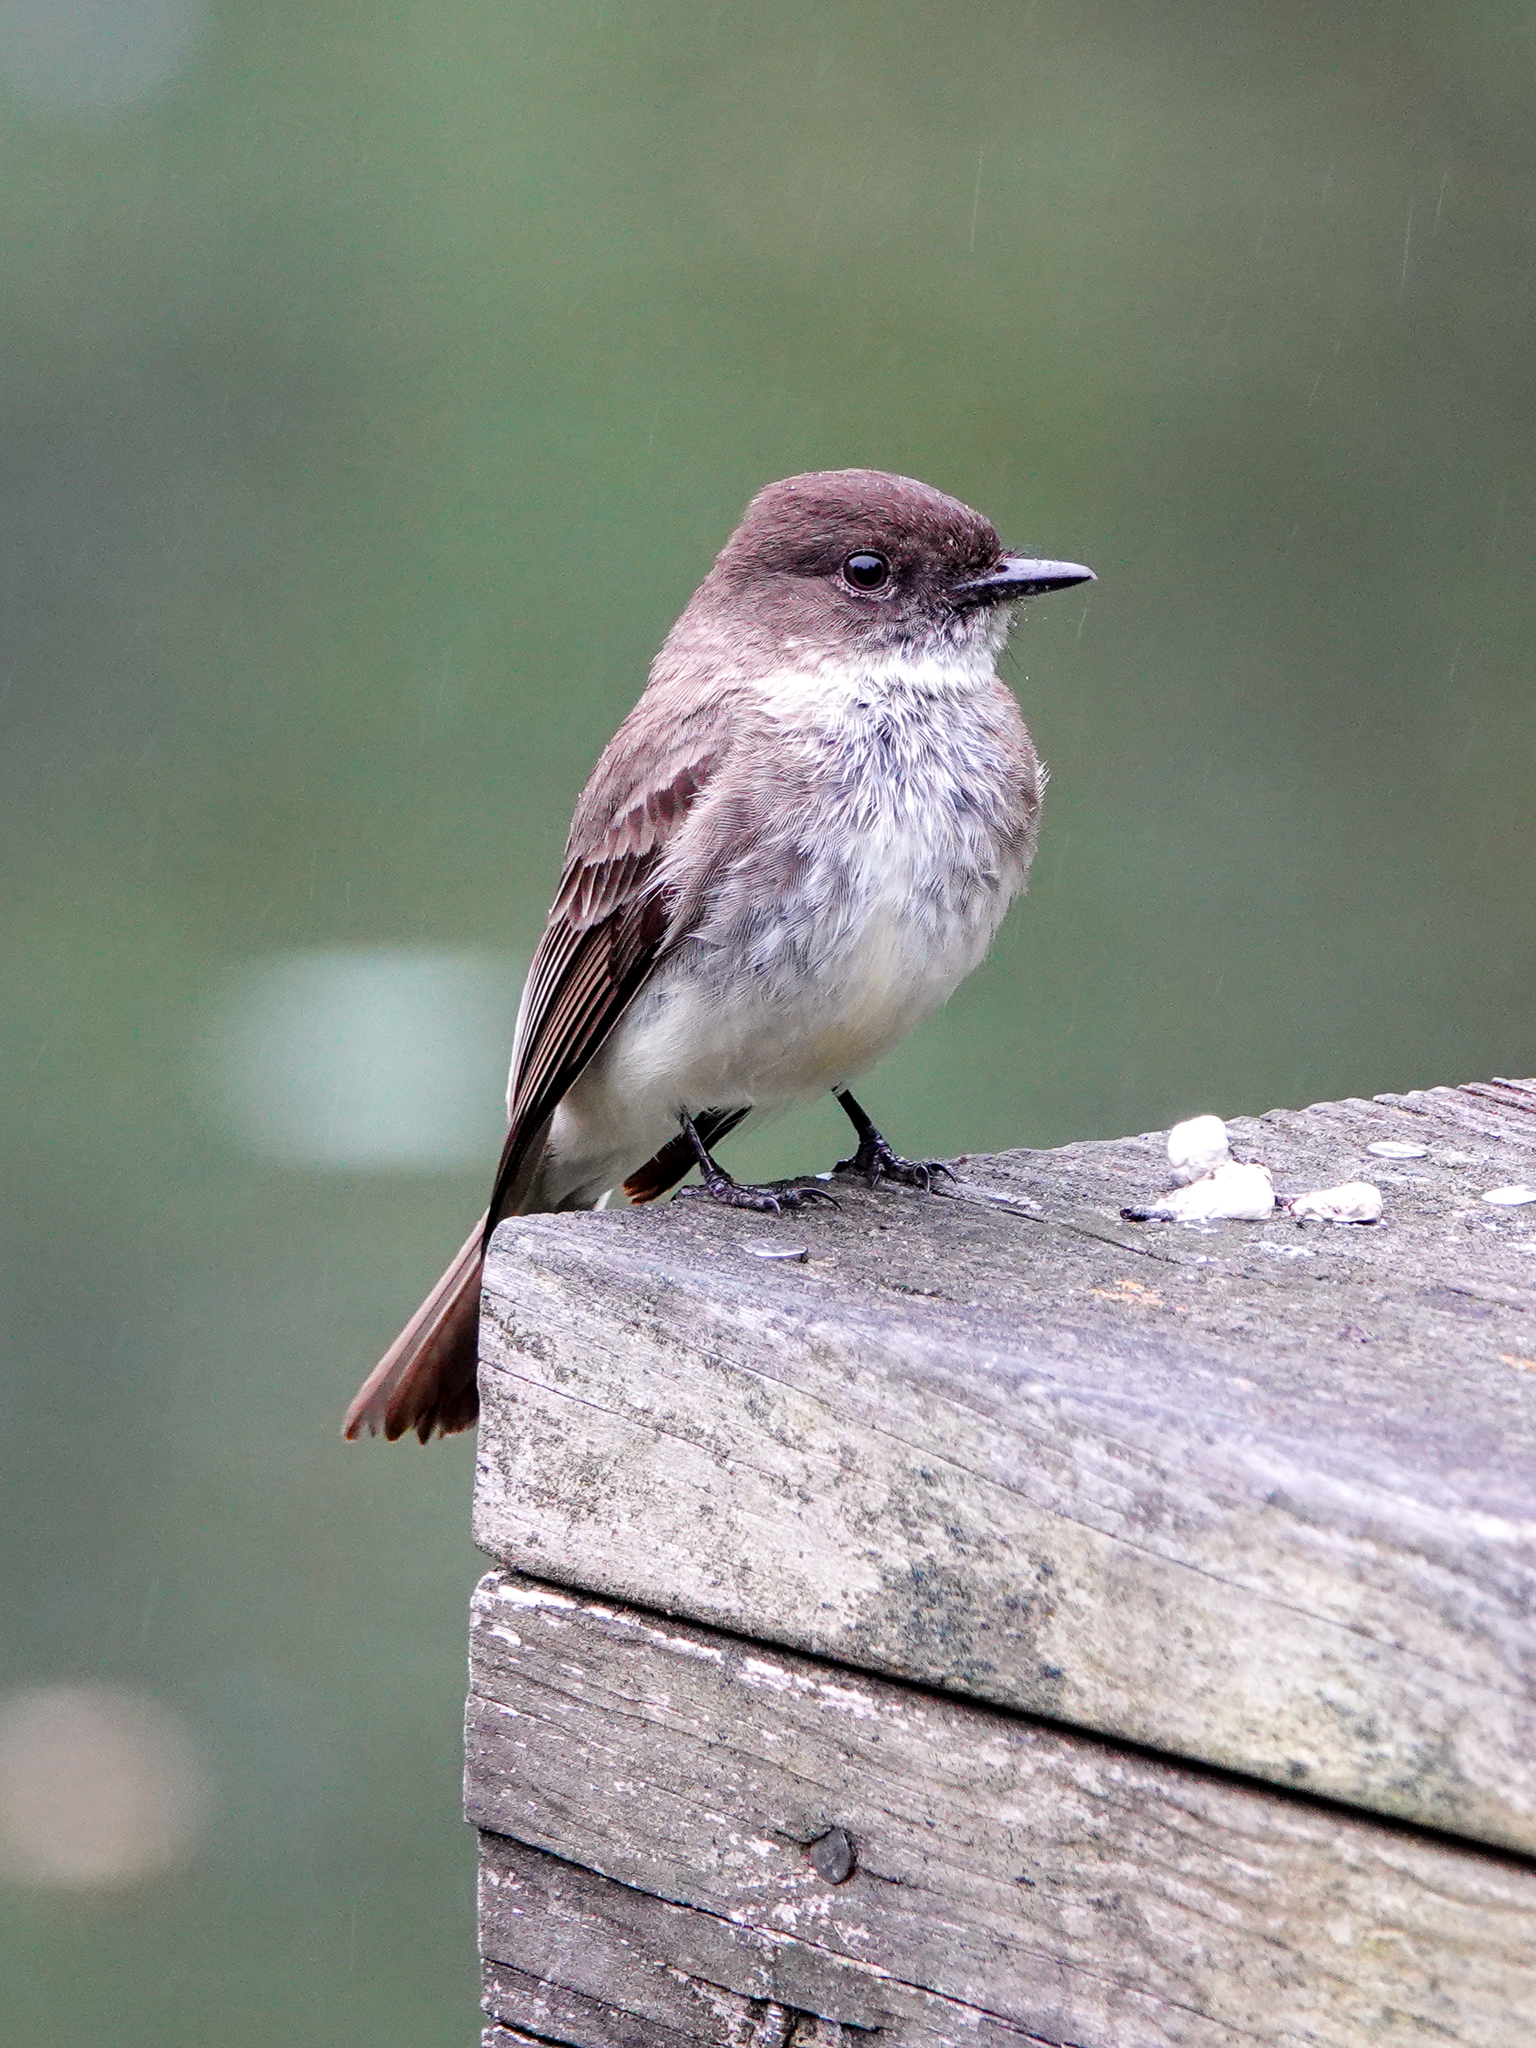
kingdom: Animalia
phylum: Chordata
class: Aves
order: Passeriformes
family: Tyrannidae
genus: Sayornis
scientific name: Sayornis phoebe
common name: Eastern phoebe
